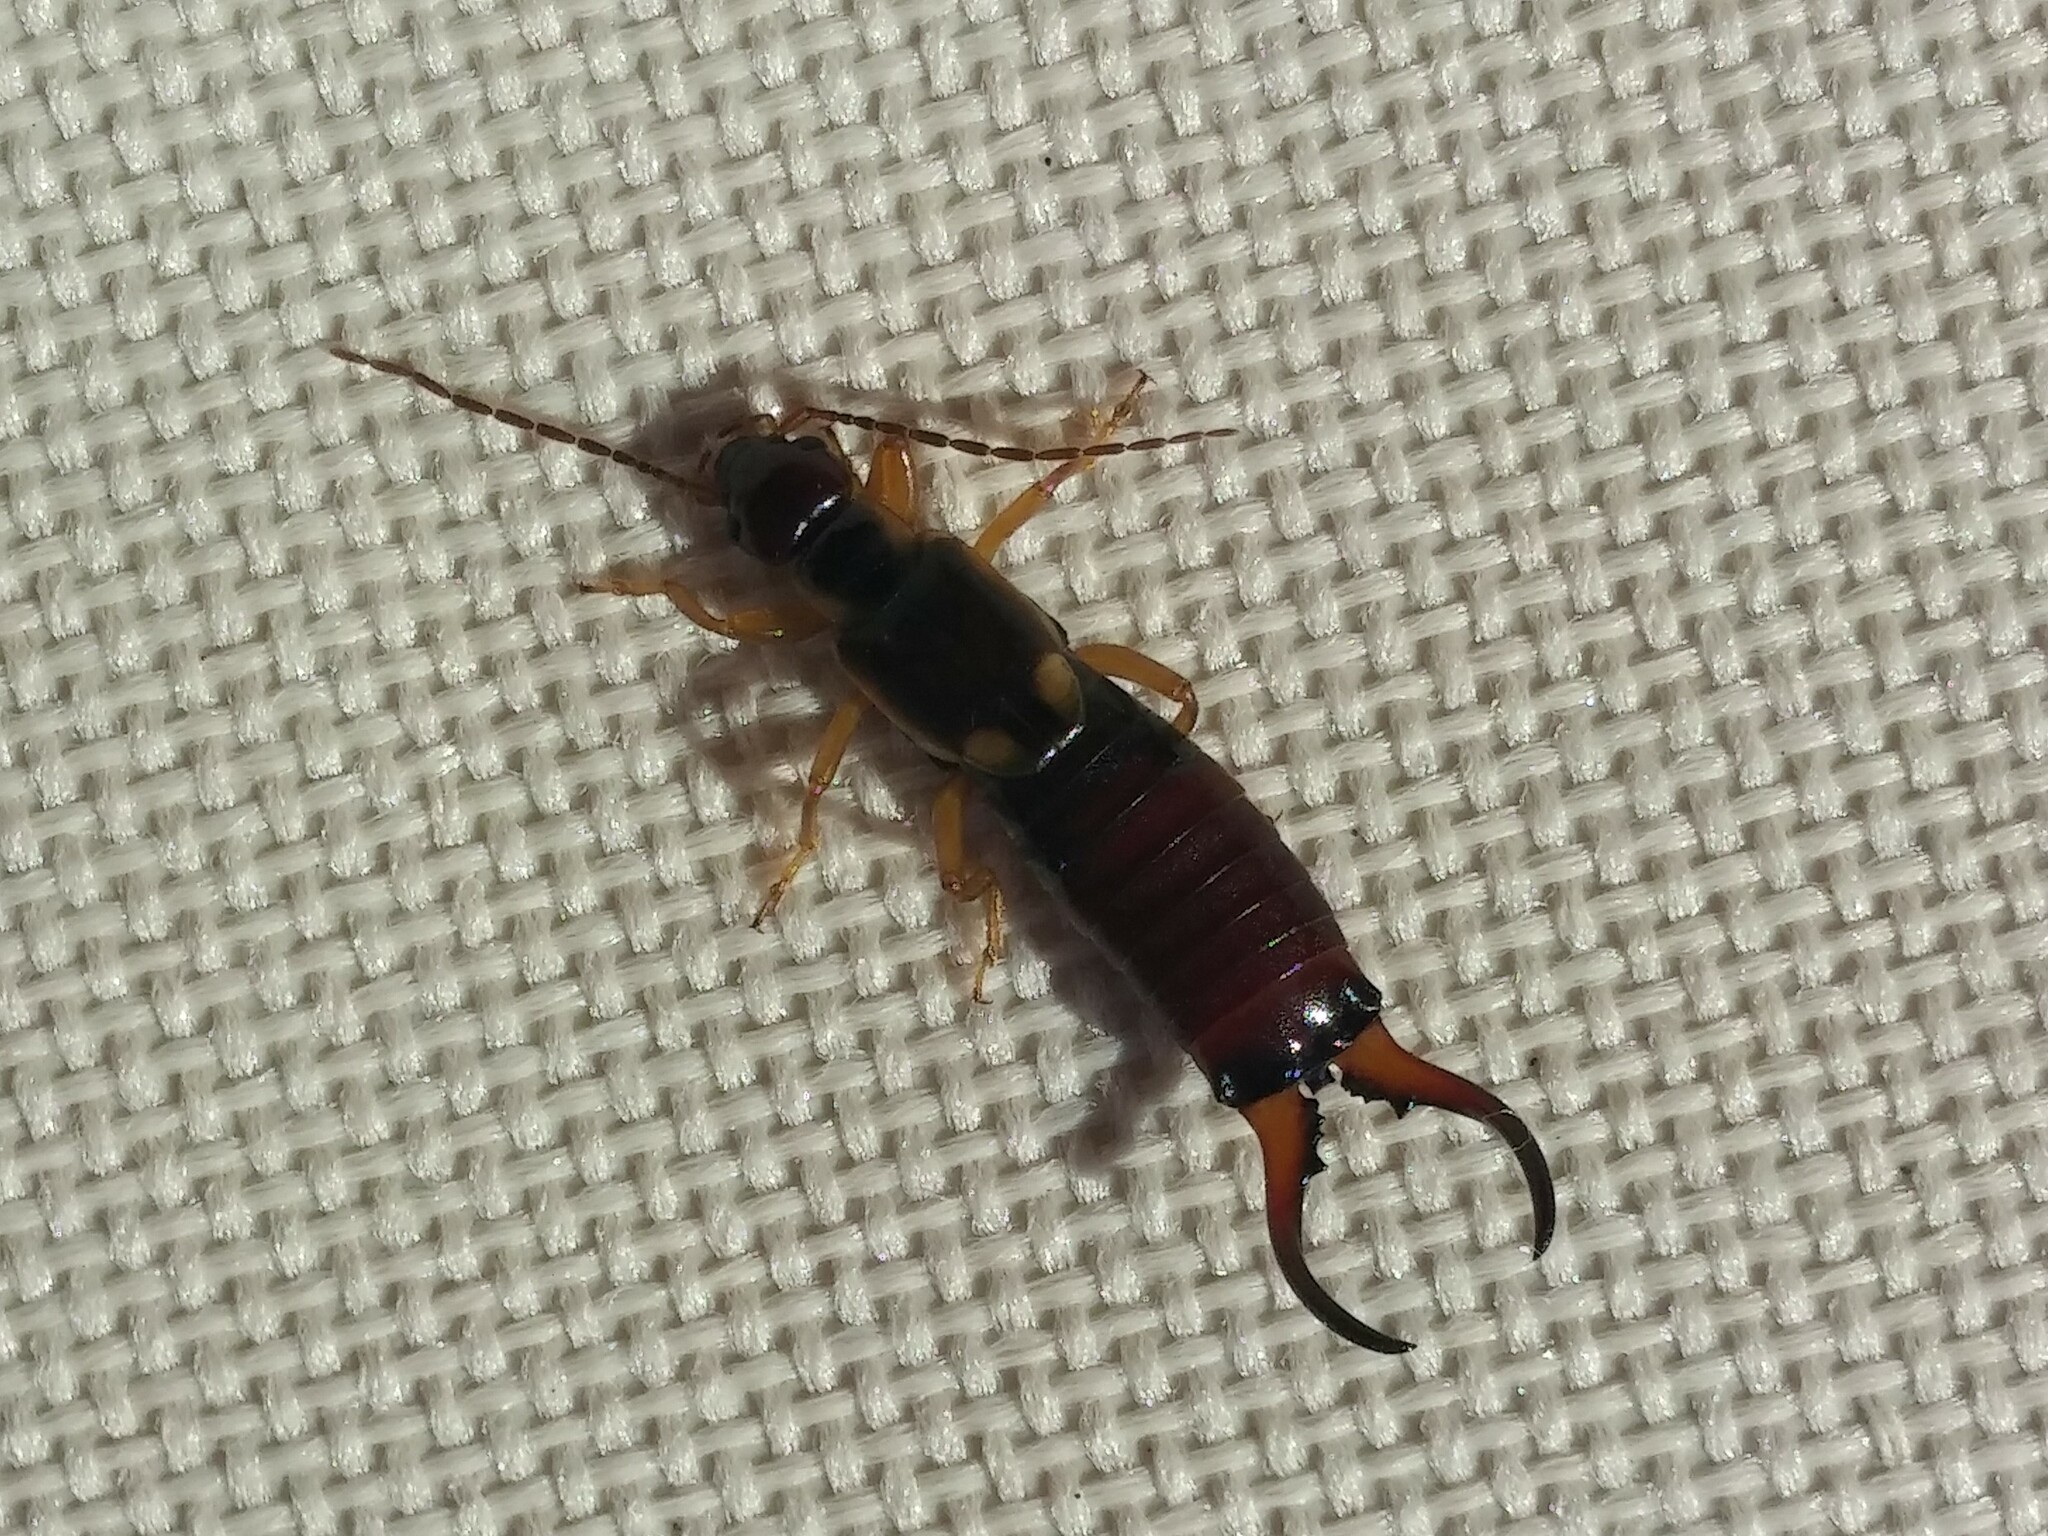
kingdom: Animalia
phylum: Arthropoda
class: Insecta
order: Dermaptera
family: Forficulidae
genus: Forficula
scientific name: Forficula
